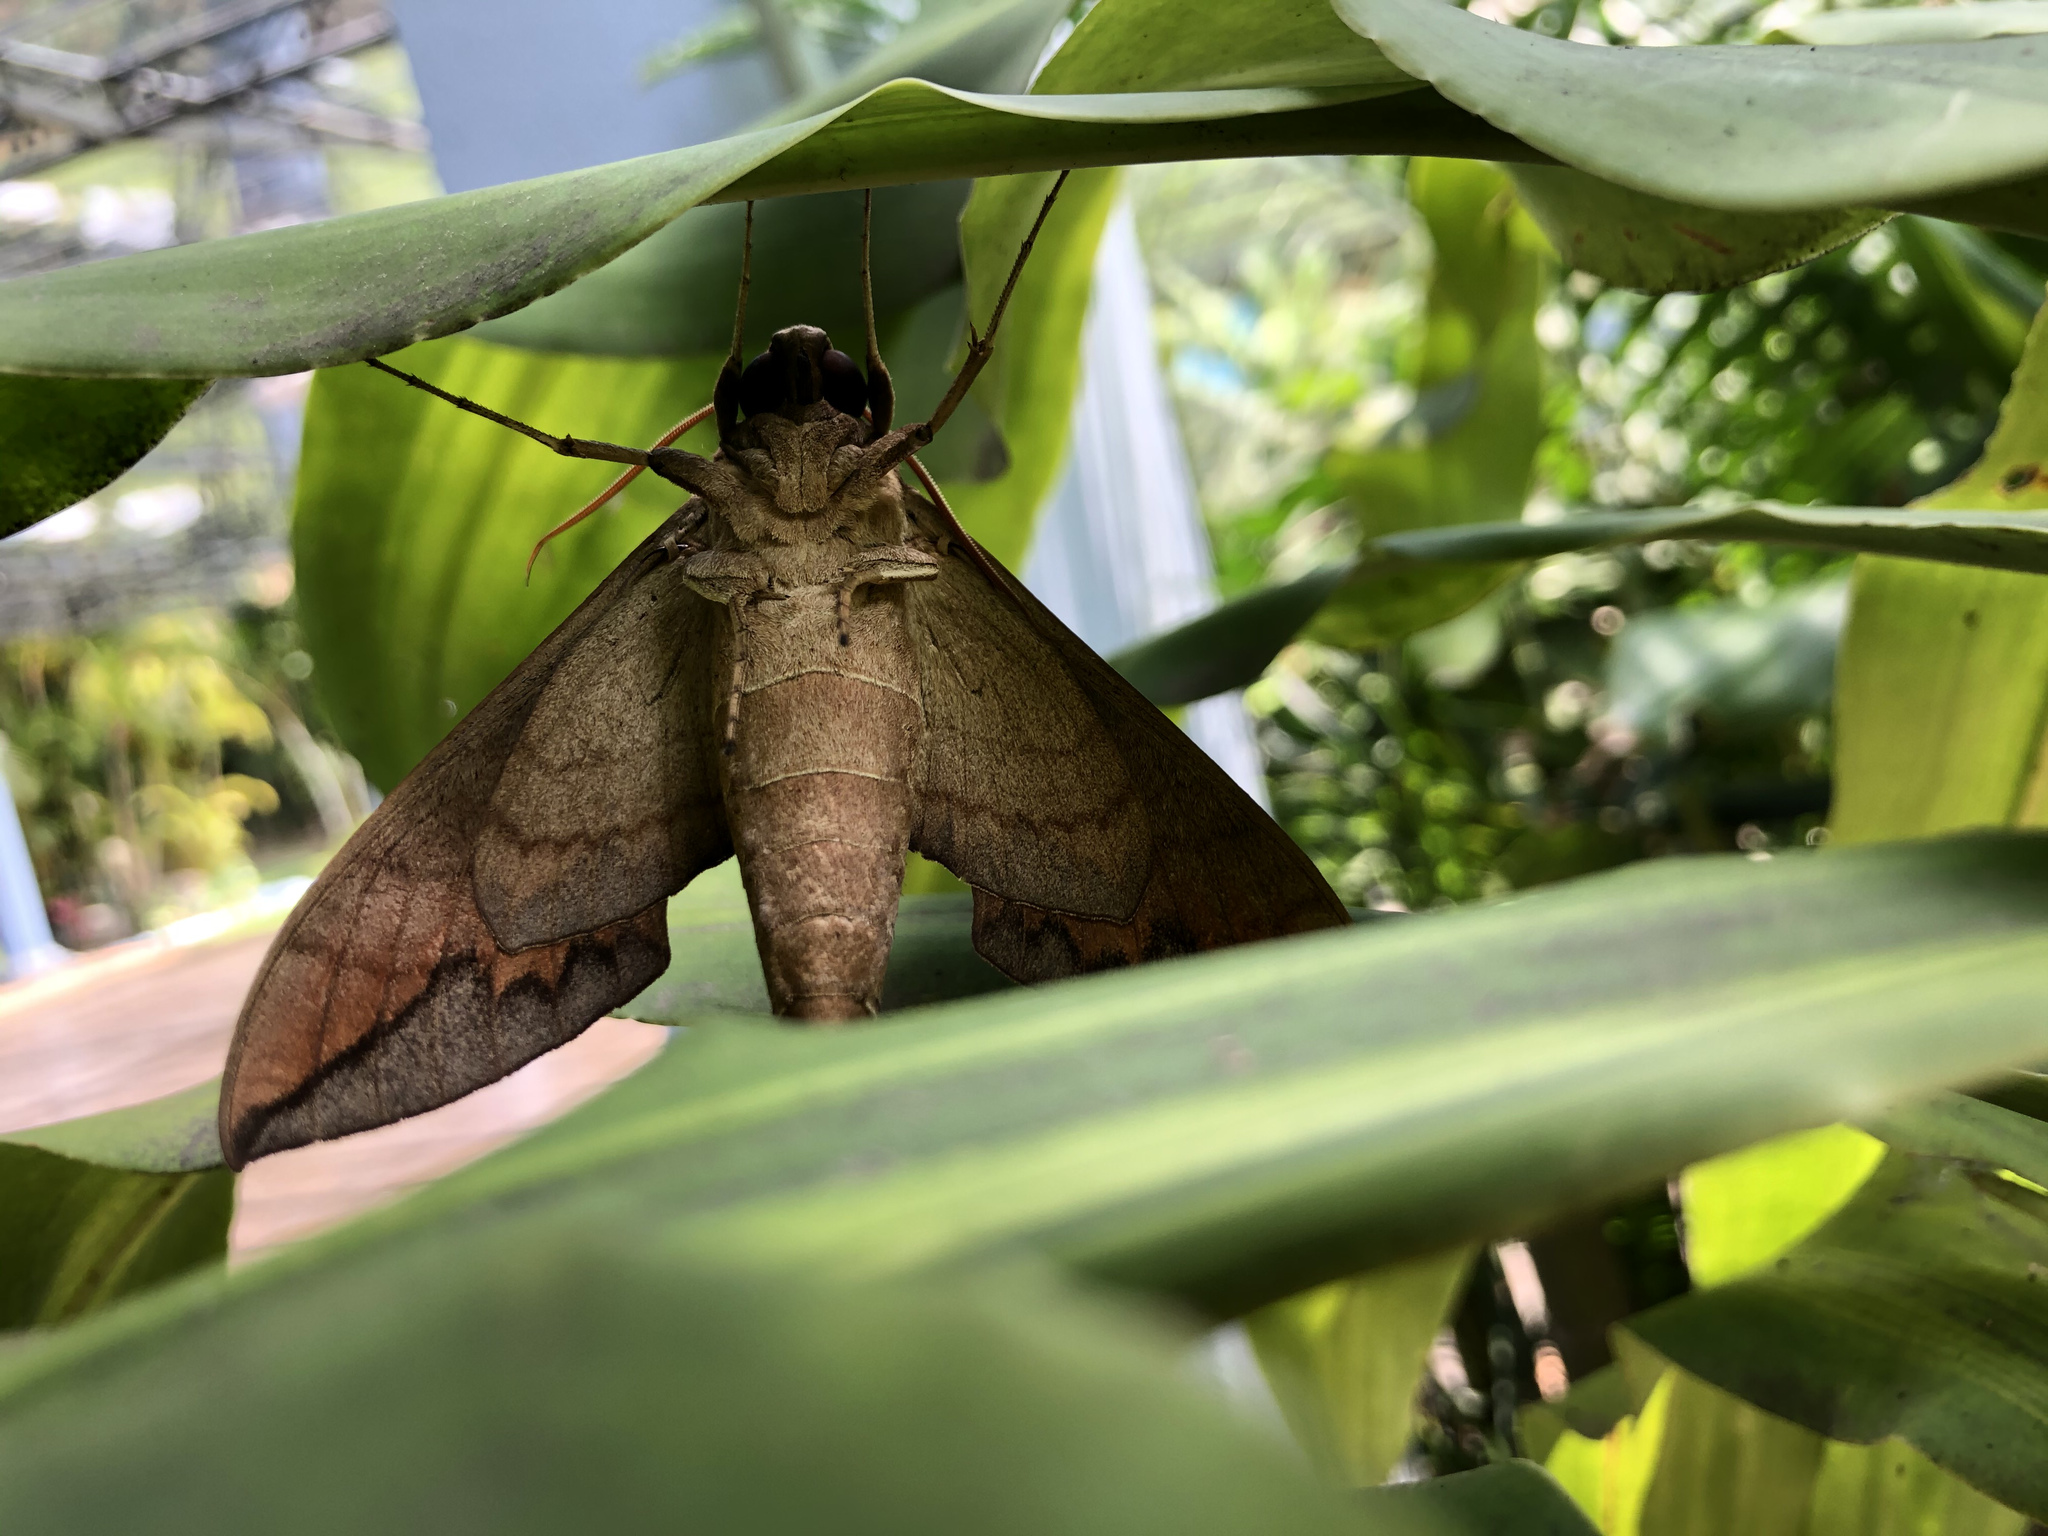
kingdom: Animalia
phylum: Arthropoda
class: Insecta
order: Lepidoptera
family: Sphingidae
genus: Eumorpha
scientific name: Eumorpha satellitia
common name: Satellite sphinx
